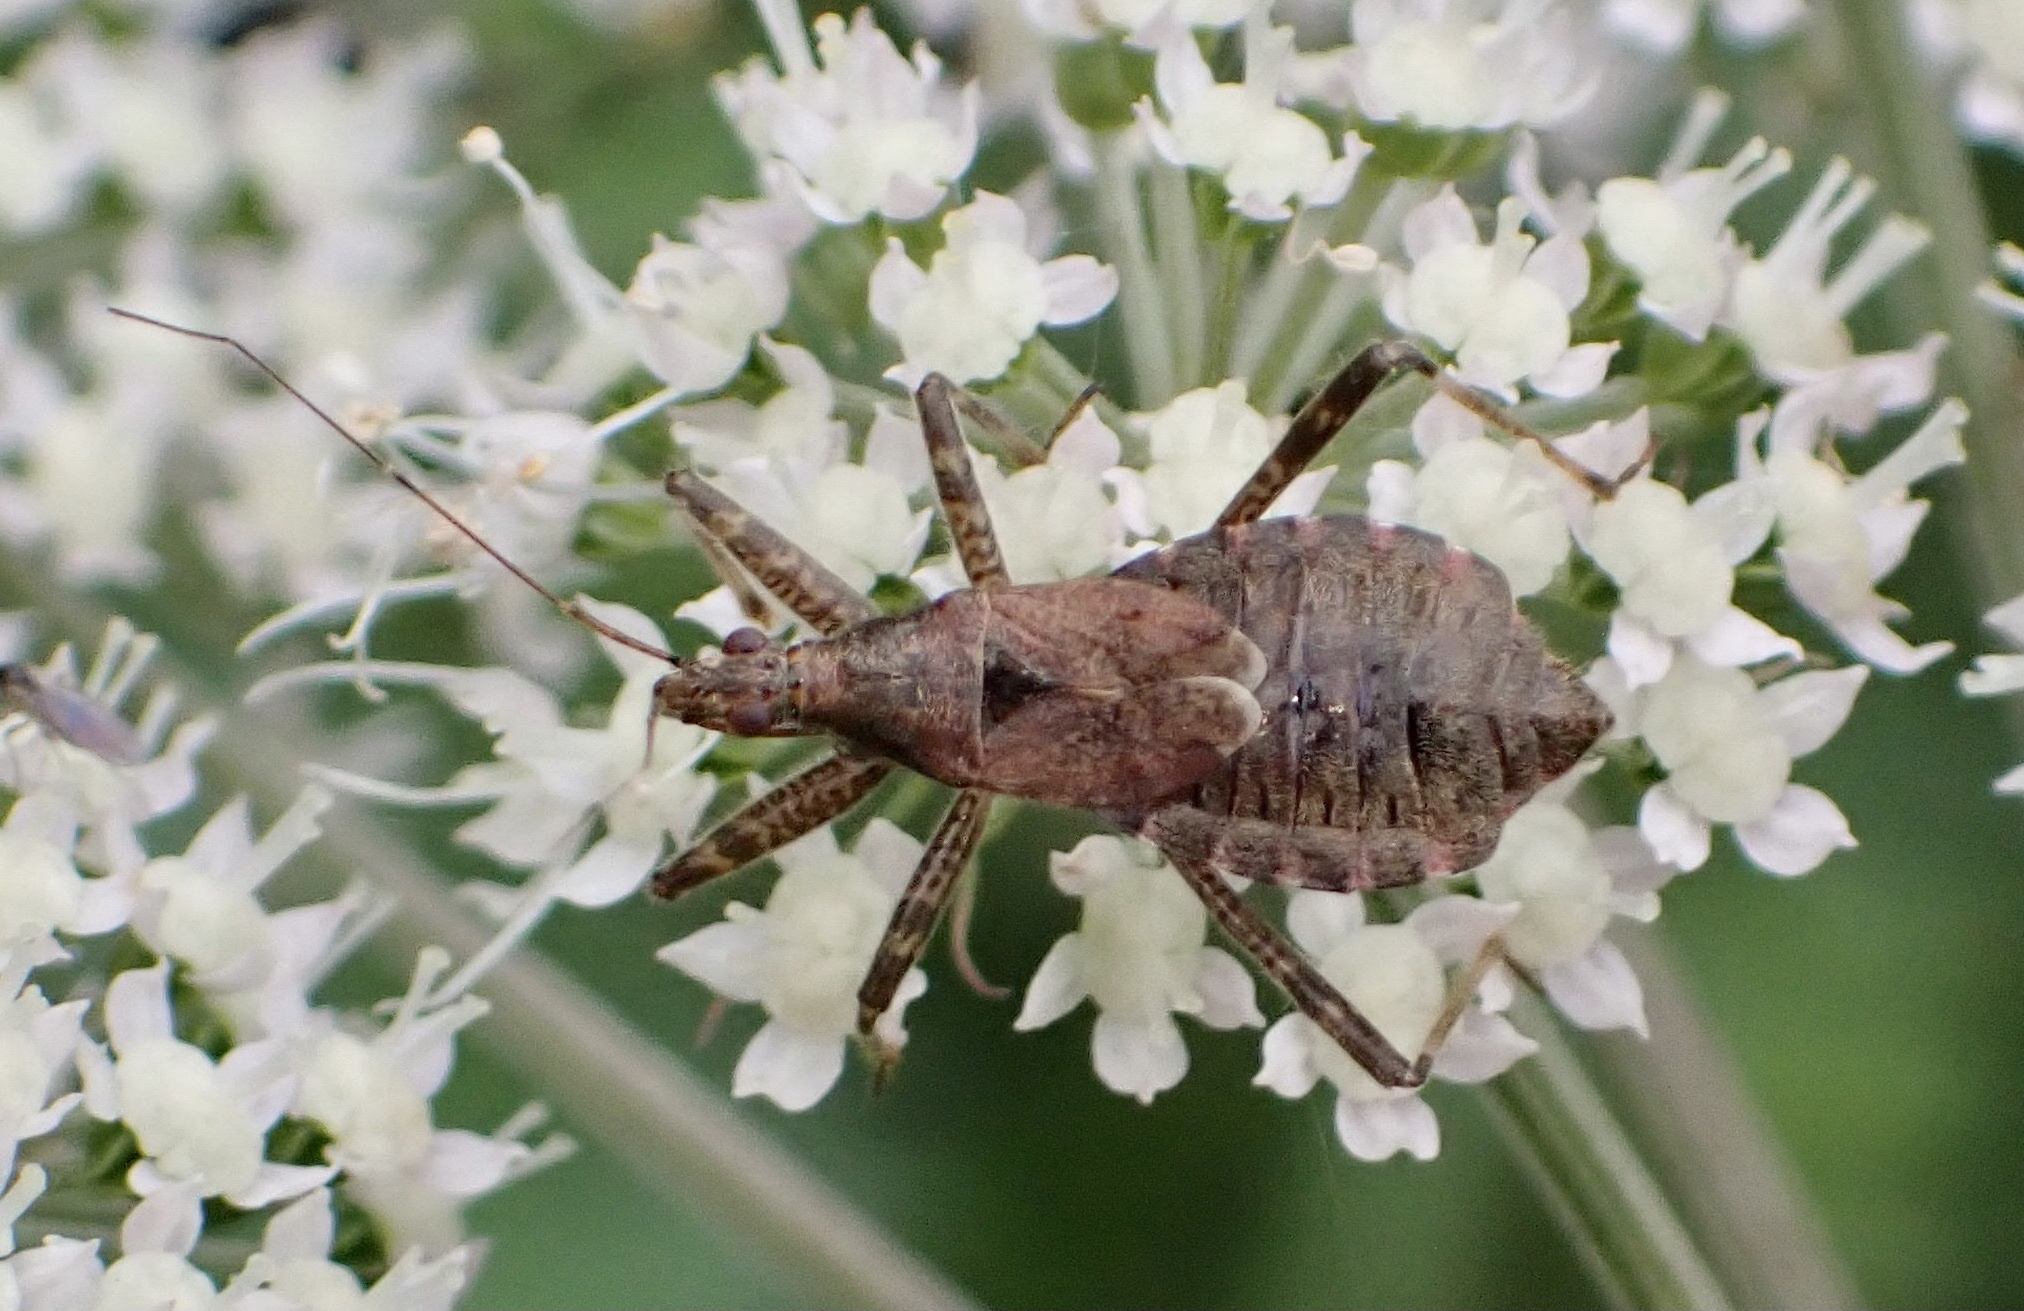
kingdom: Animalia
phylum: Arthropoda
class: Insecta
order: Hemiptera
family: Nabidae
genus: Himacerus
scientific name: Himacerus apterus
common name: Tree damsel bug
